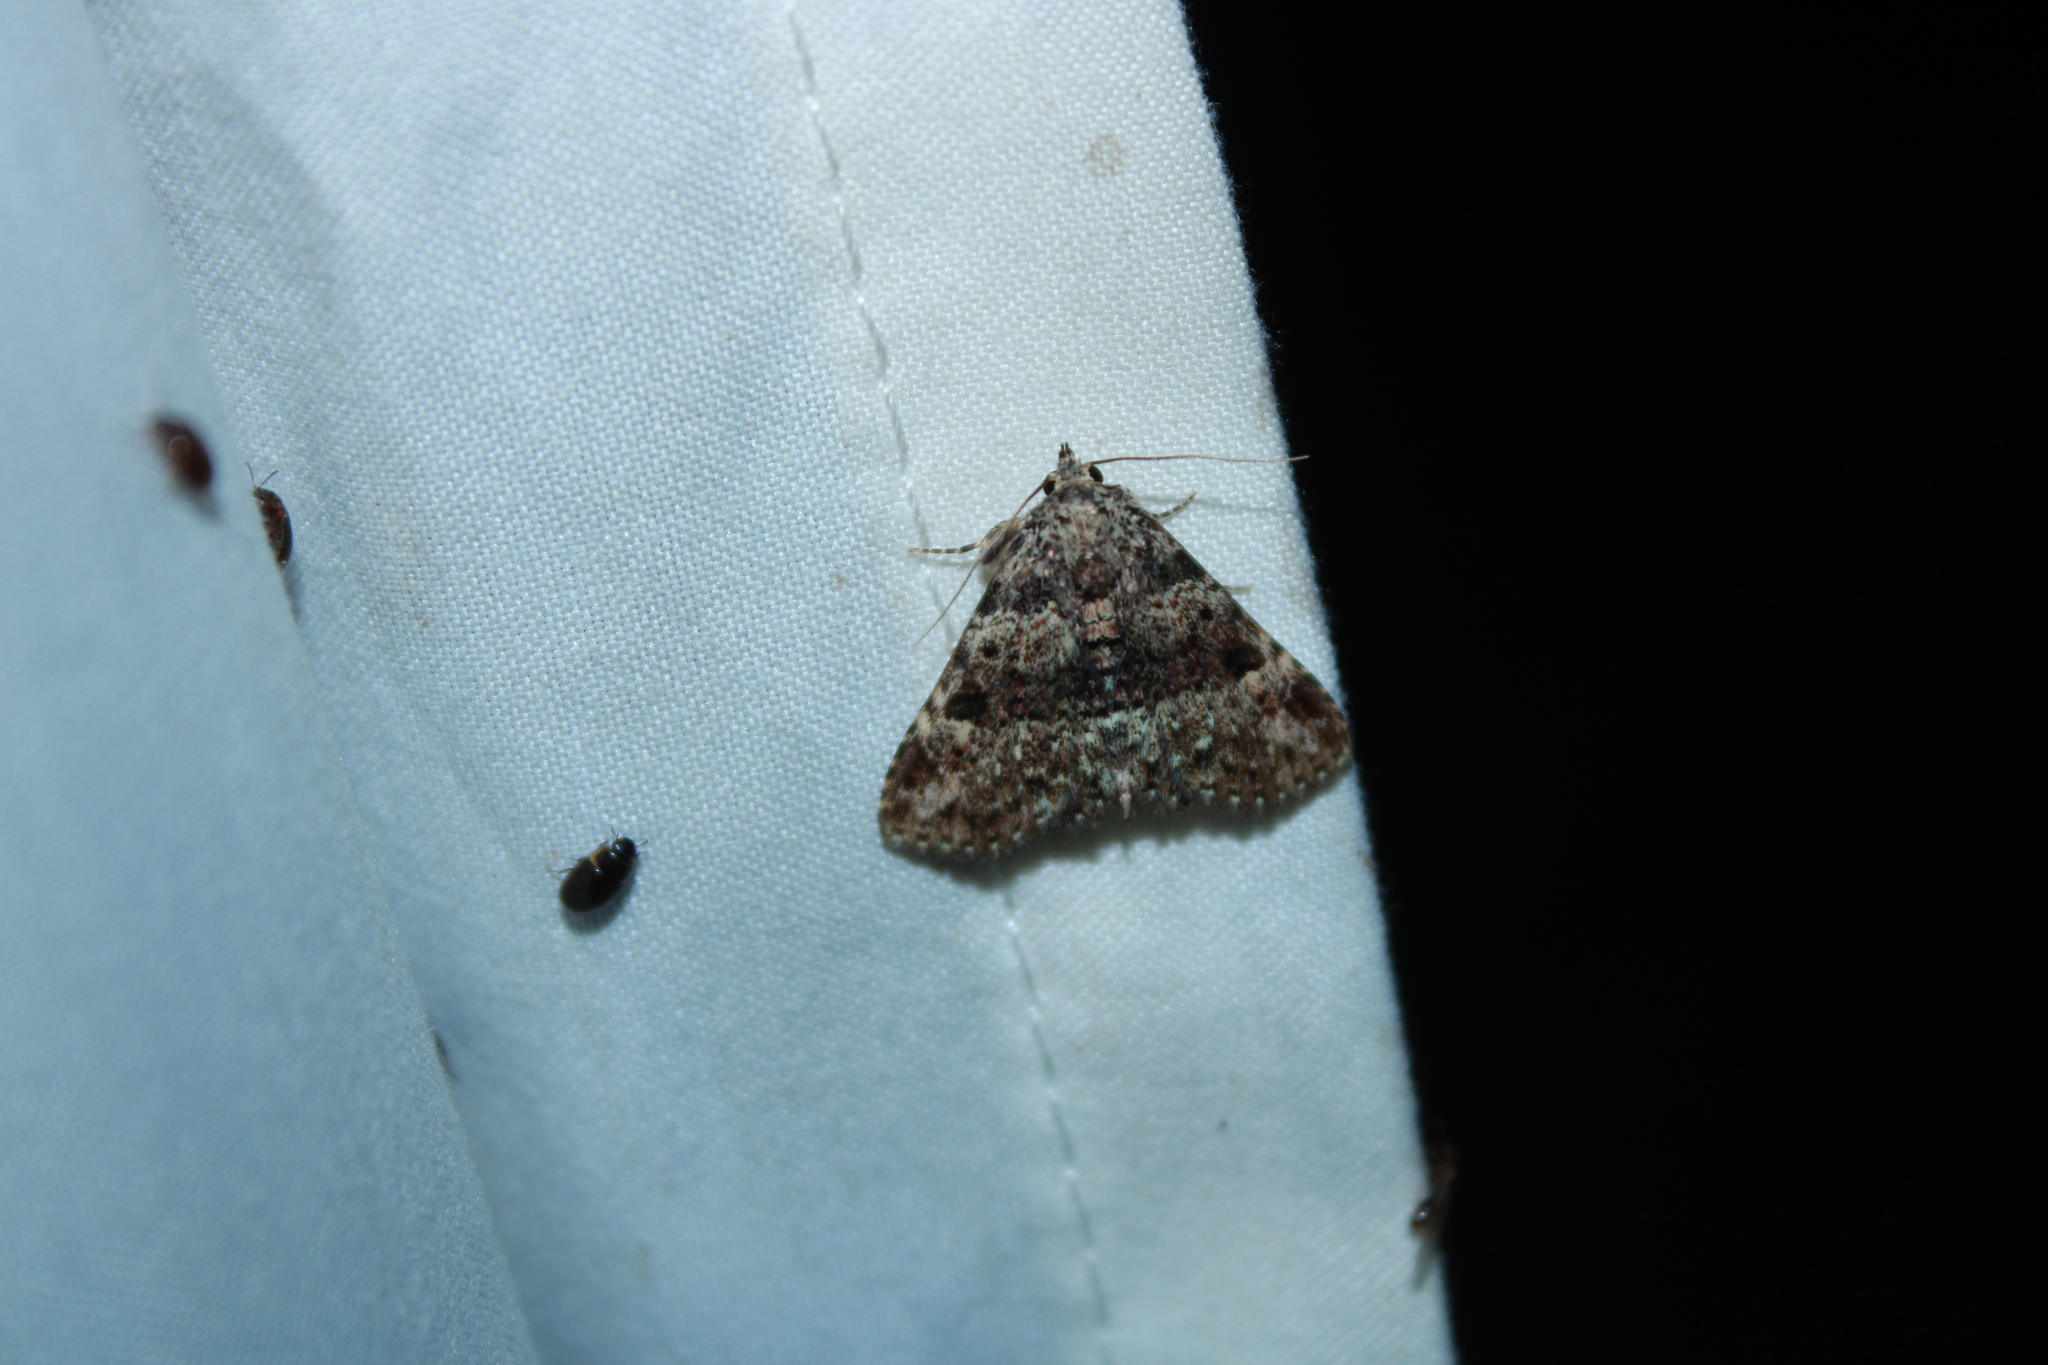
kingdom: Animalia
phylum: Arthropoda
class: Insecta
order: Lepidoptera
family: Erebidae
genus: Metalectra
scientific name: Metalectra discalis
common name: Common fungus moth
